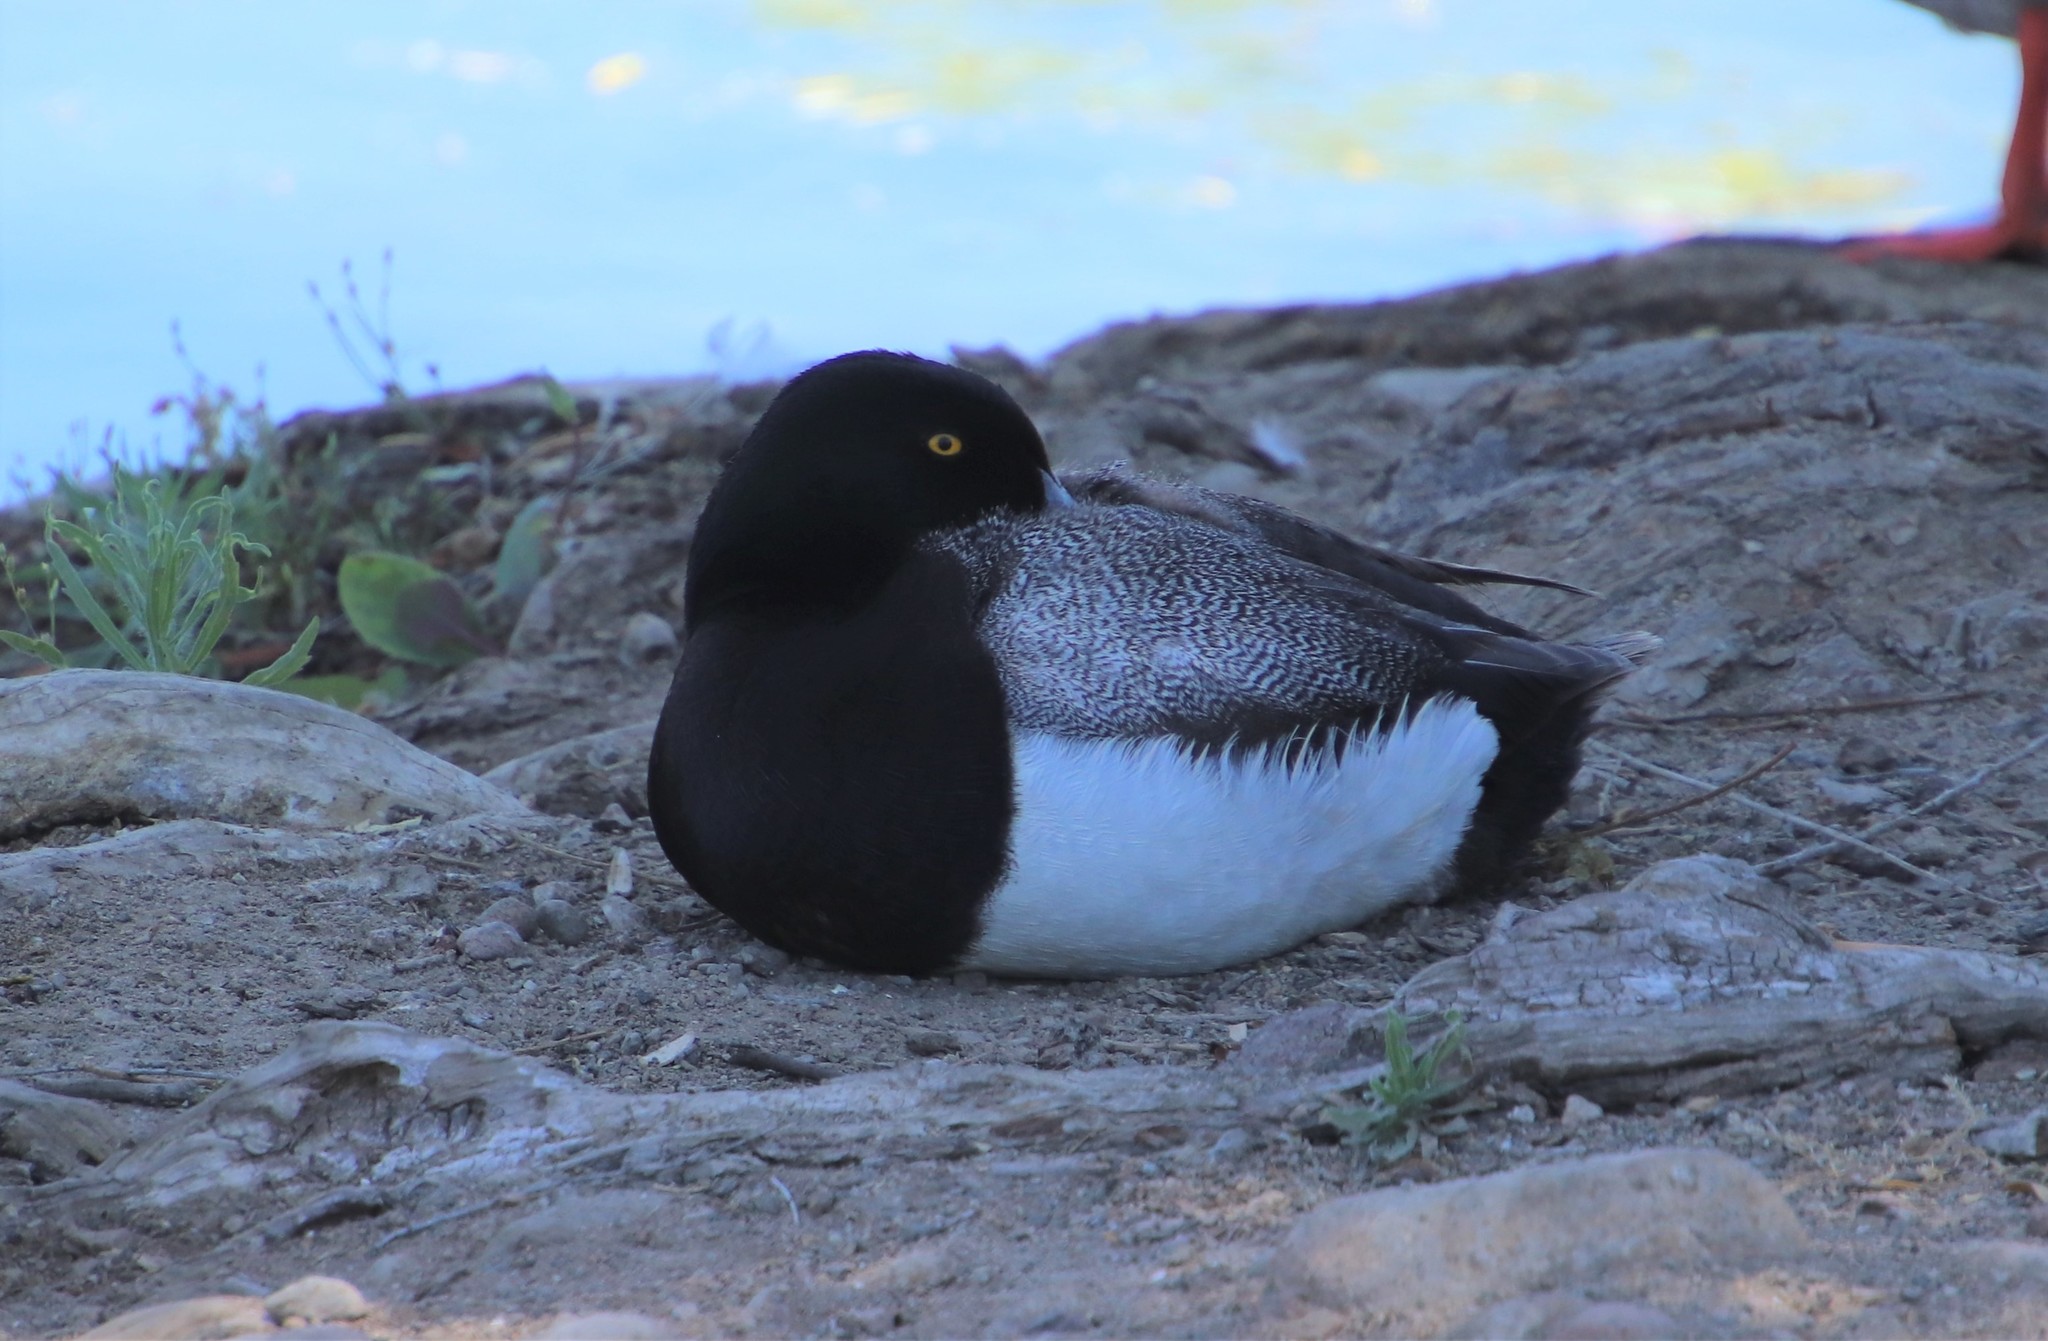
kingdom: Animalia
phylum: Chordata
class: Aves
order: Anseriformes
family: Anatidae
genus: Aythya
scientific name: Aythya marila
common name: Greater scaup
